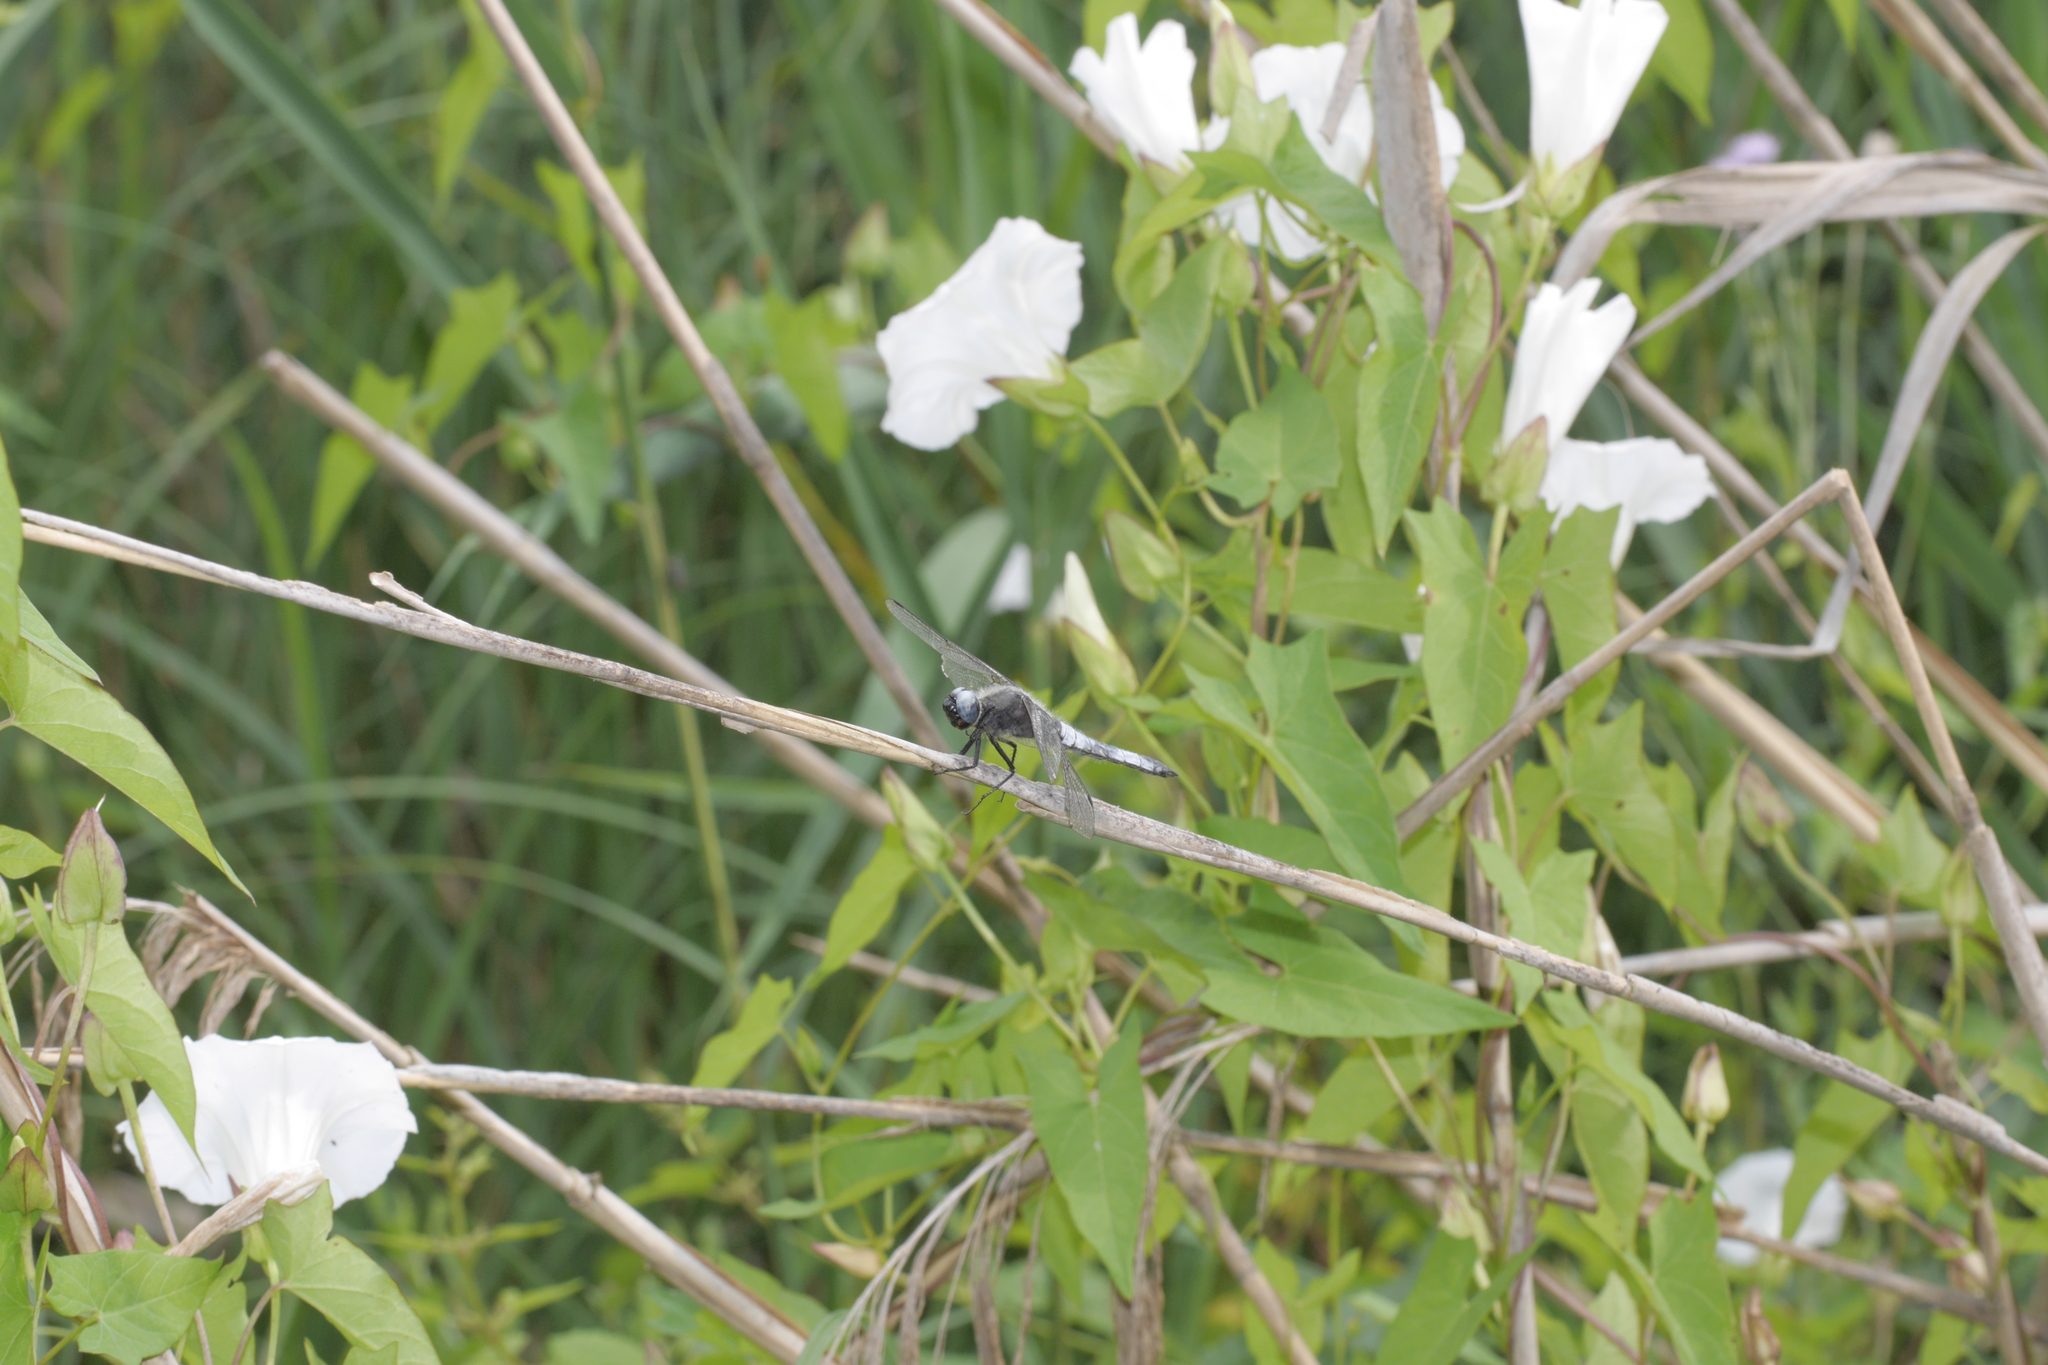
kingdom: Animalia
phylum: Arthropoda
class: Insecta
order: Odonata
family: Libellulidae
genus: Libellula
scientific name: Libellula fulva
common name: Blue chaser
